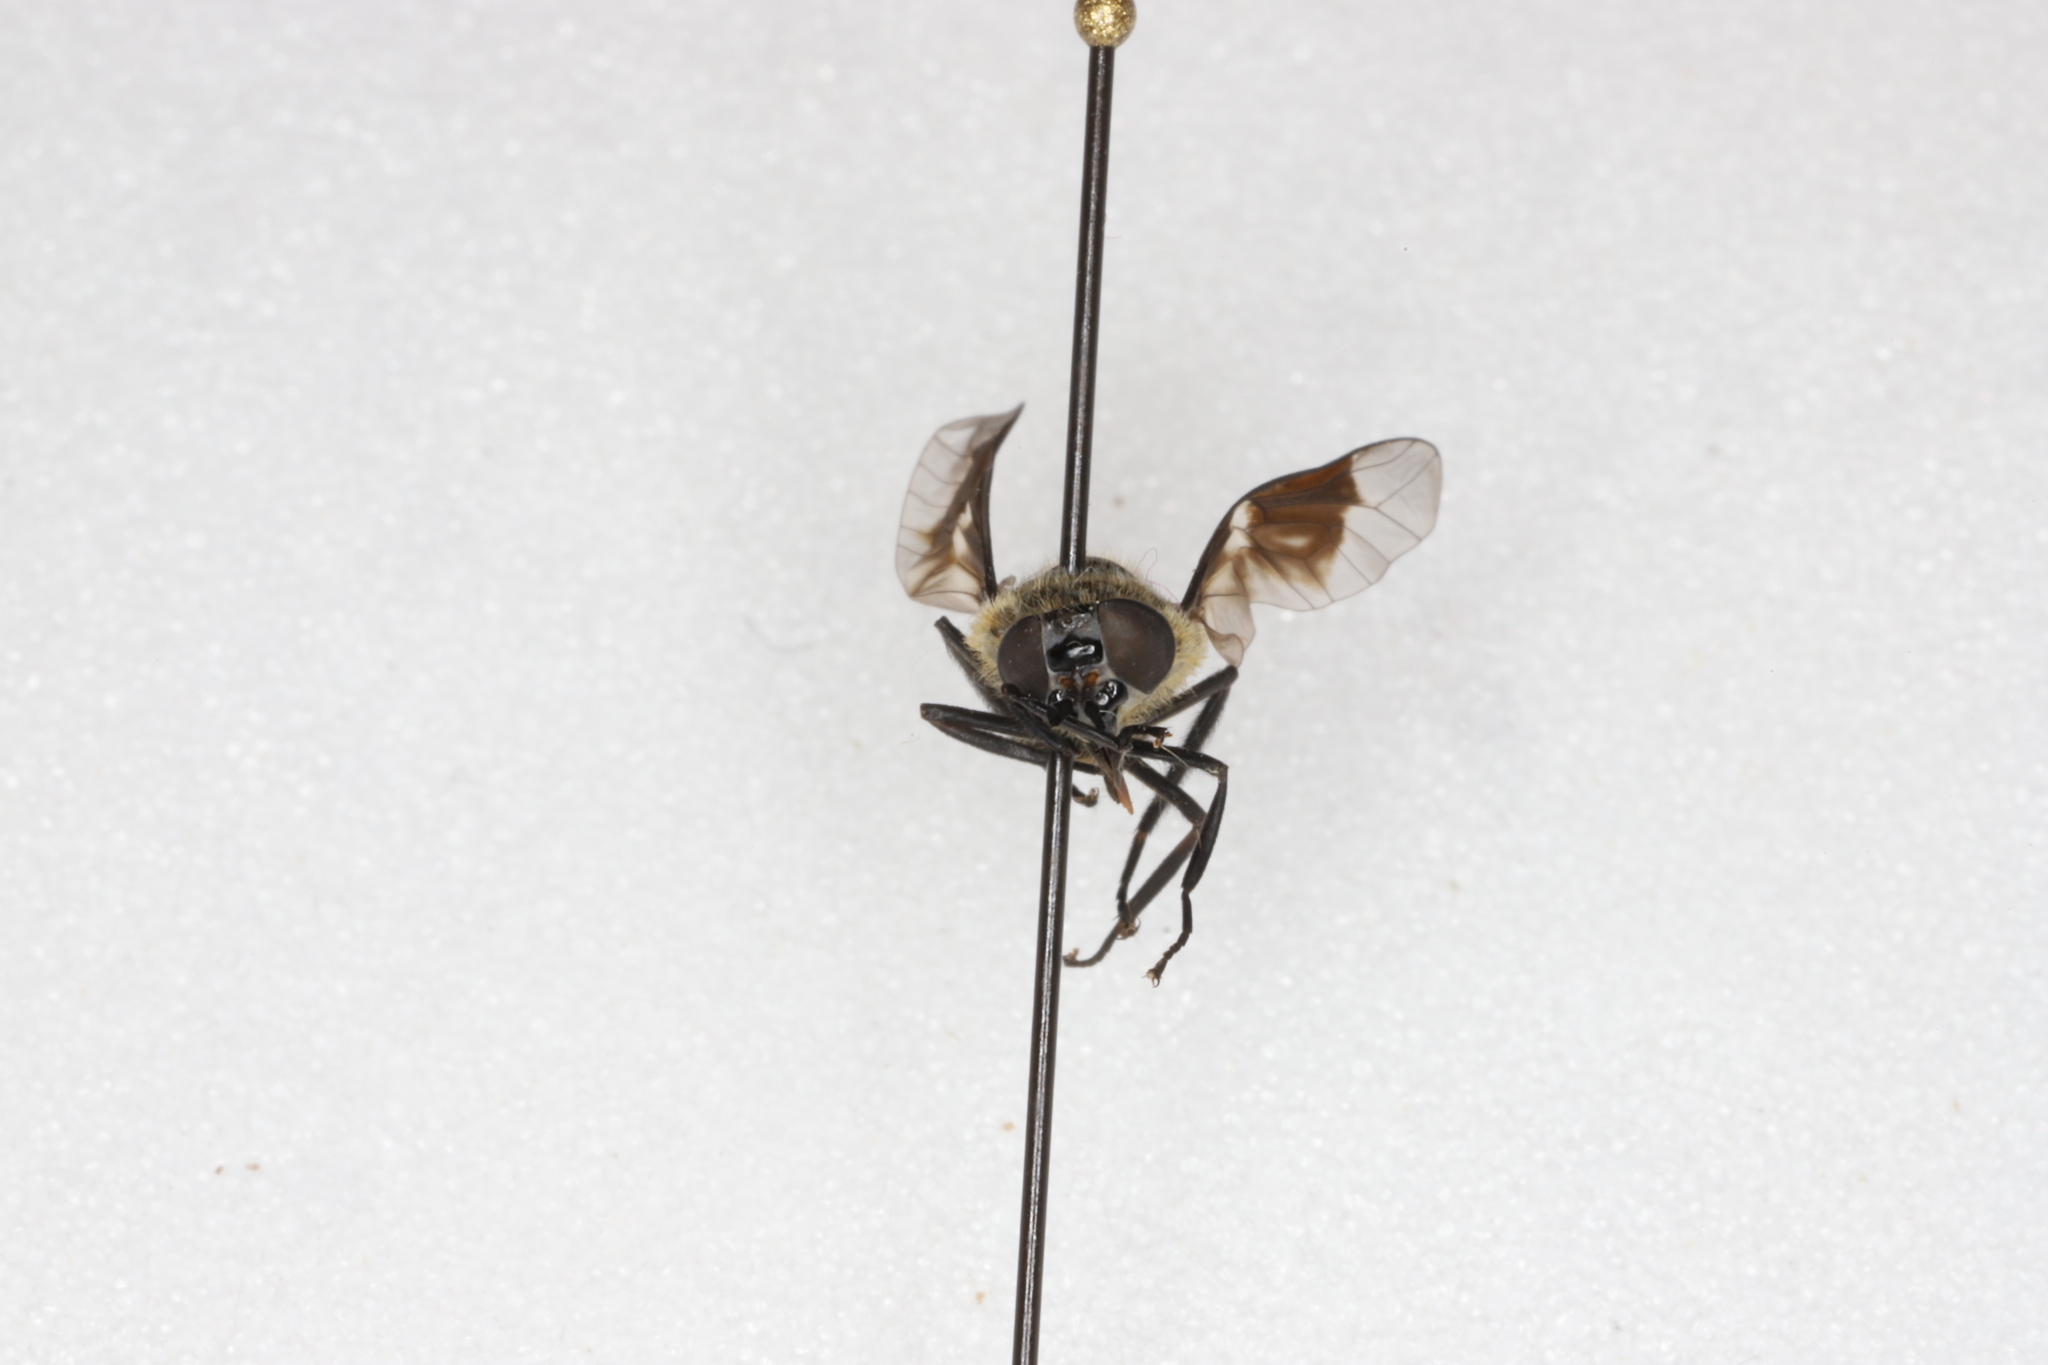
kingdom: Animalia
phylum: Arthropoda
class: Insecta
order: Diptera
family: Tabanidae
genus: Chrysops
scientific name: Chrysops excitans
